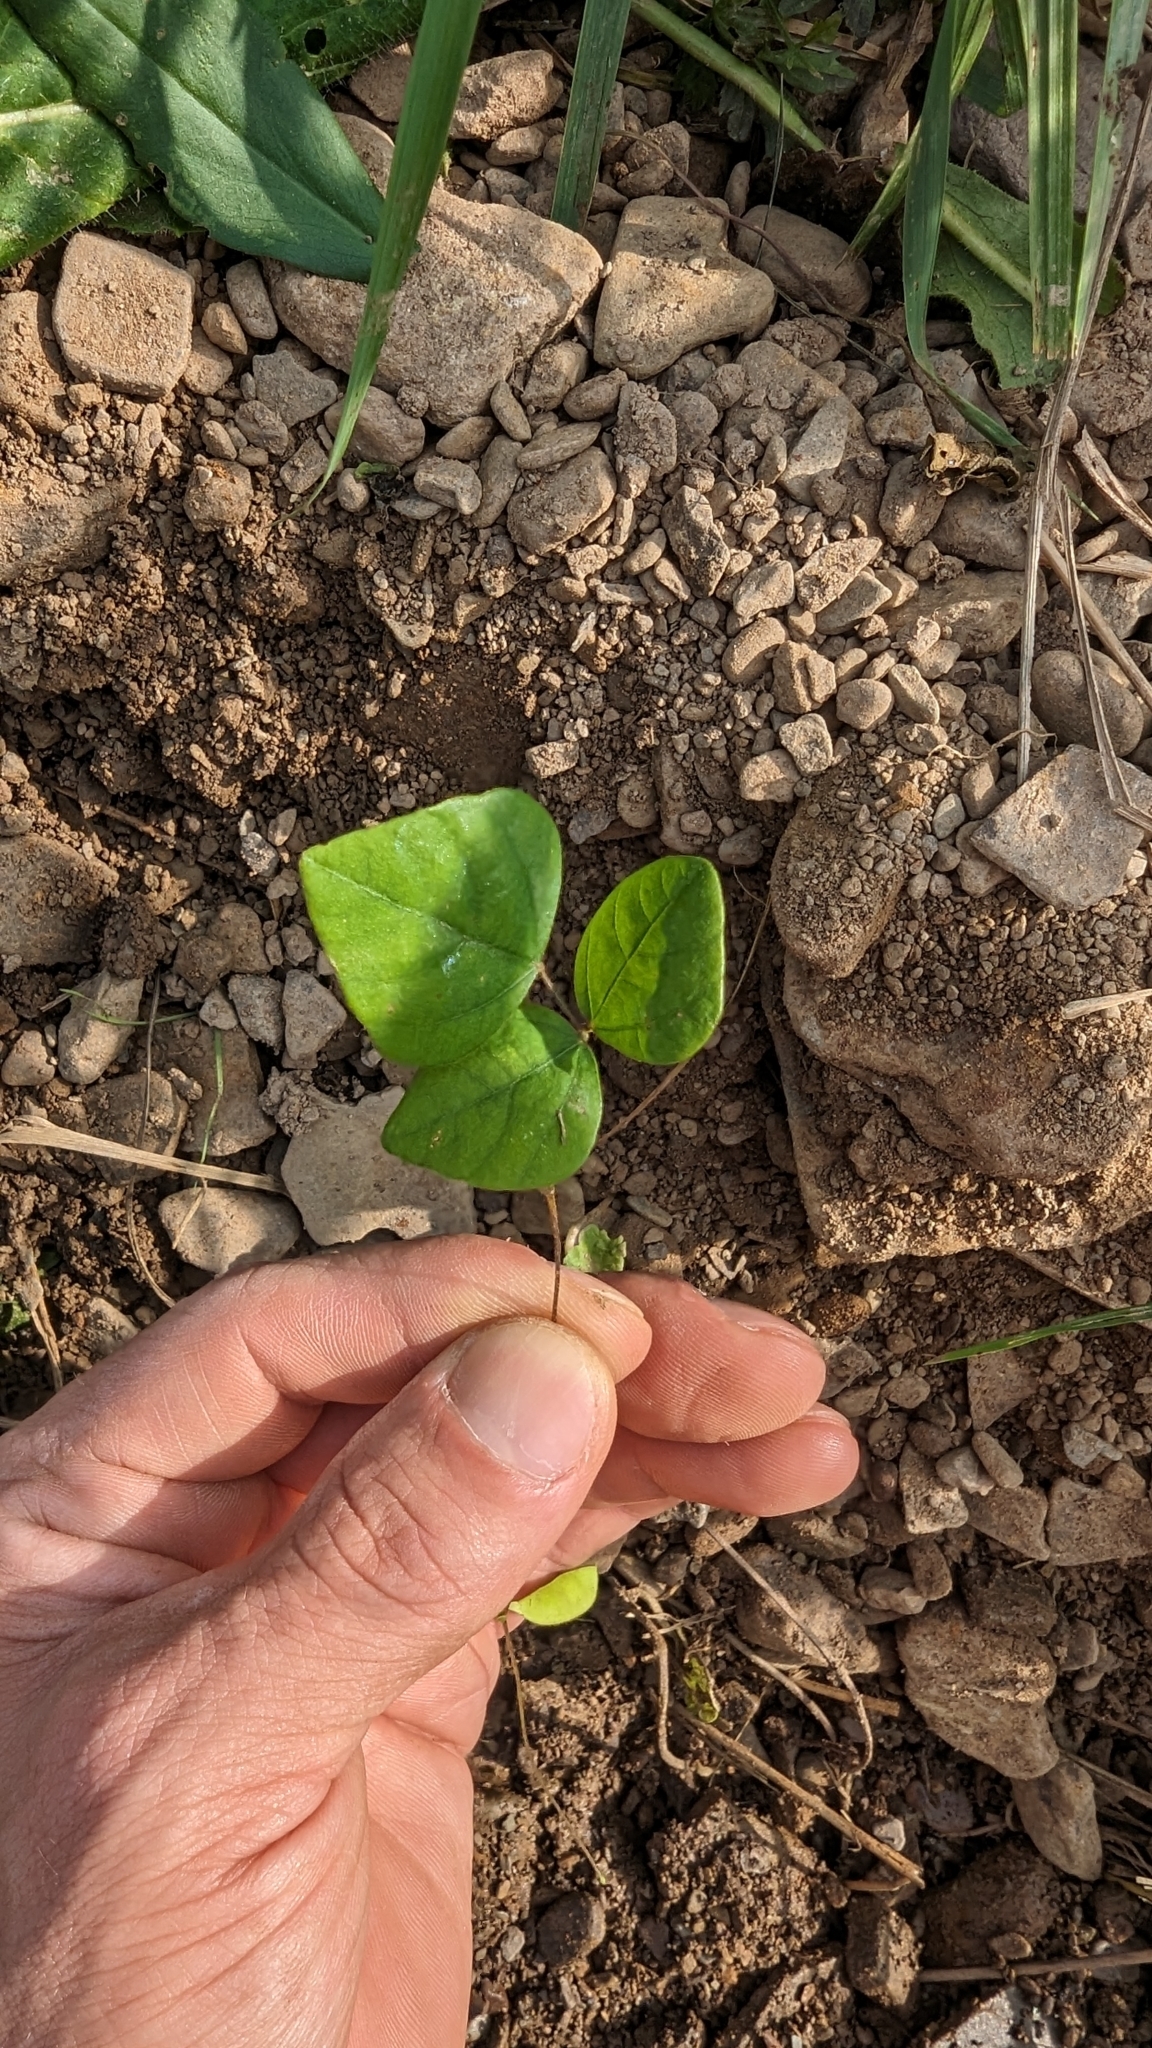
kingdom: Plantae
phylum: Tracheophyta
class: Magnoliopsida
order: Fabales
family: Fabaceae
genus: Amphicarpaea
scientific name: Amphicarpaea bracteata
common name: American hog peanut
